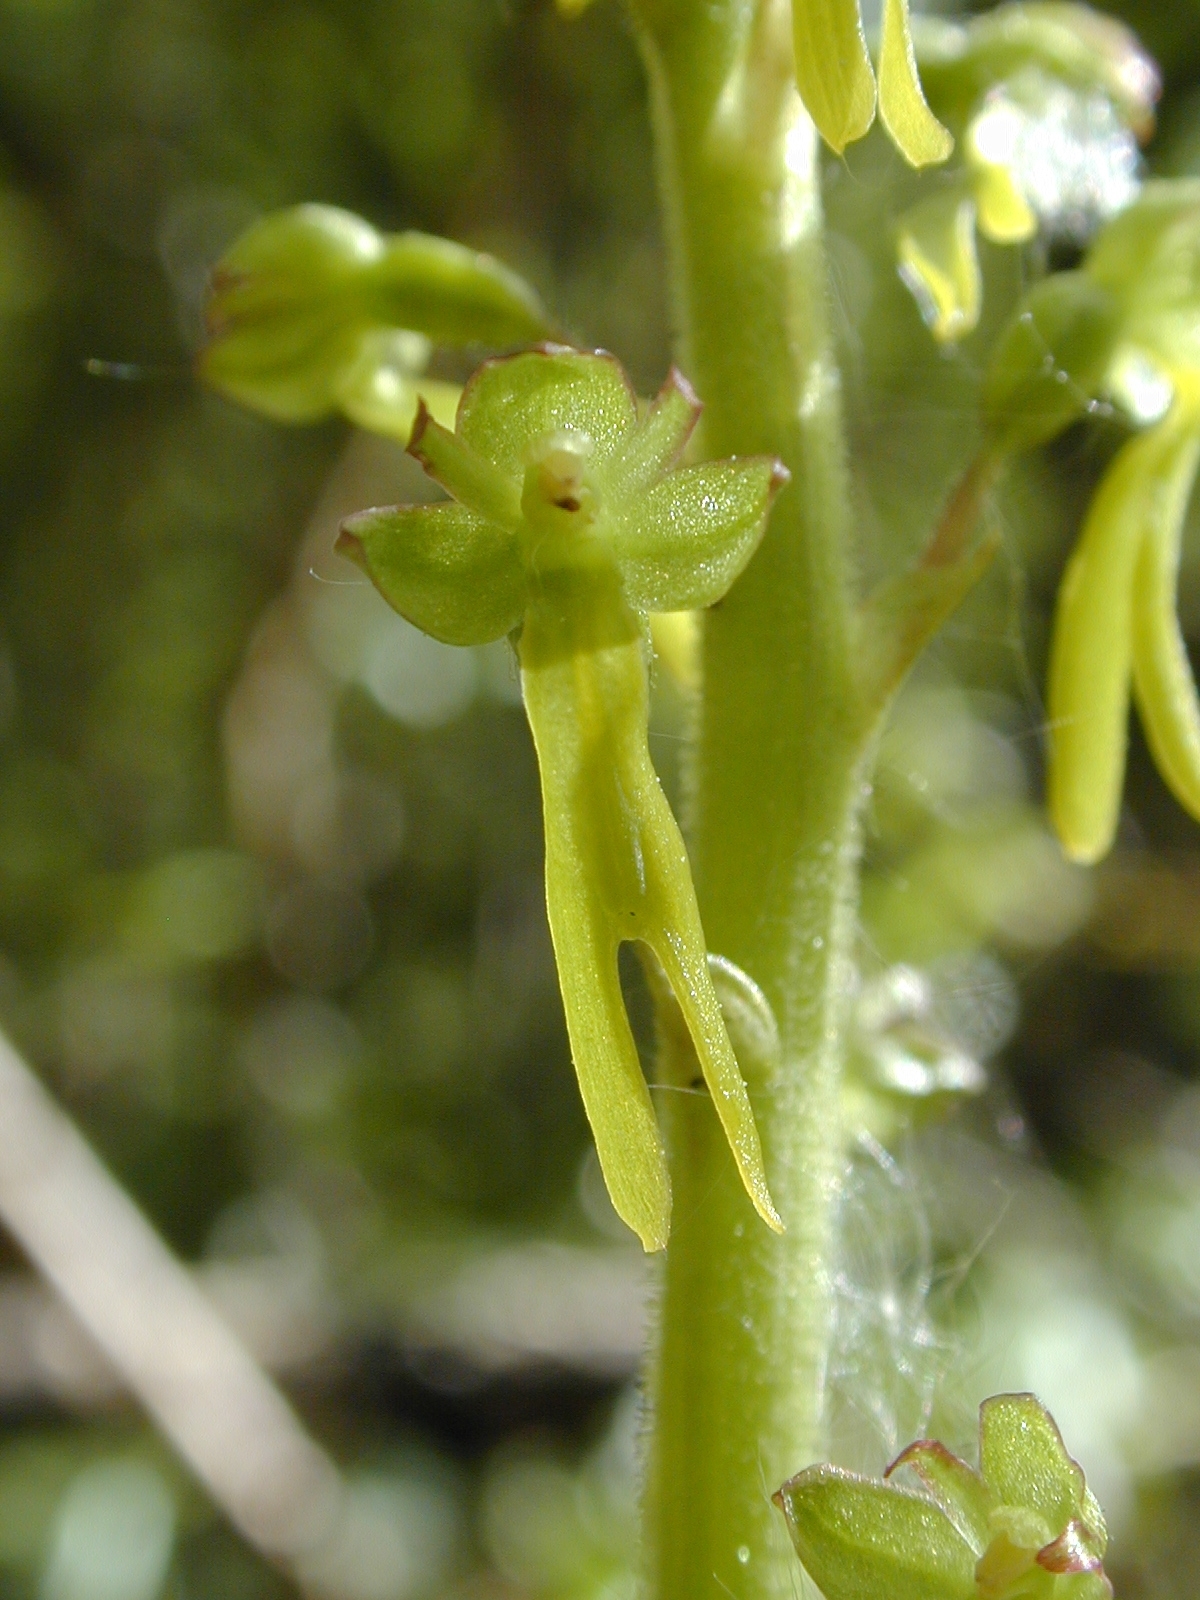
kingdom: Plantae
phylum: Tracheophyta
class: Liliopsida
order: Asparagales
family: Orchidaceae
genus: Neottia
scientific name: Neottia ovata
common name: Common twayblade
